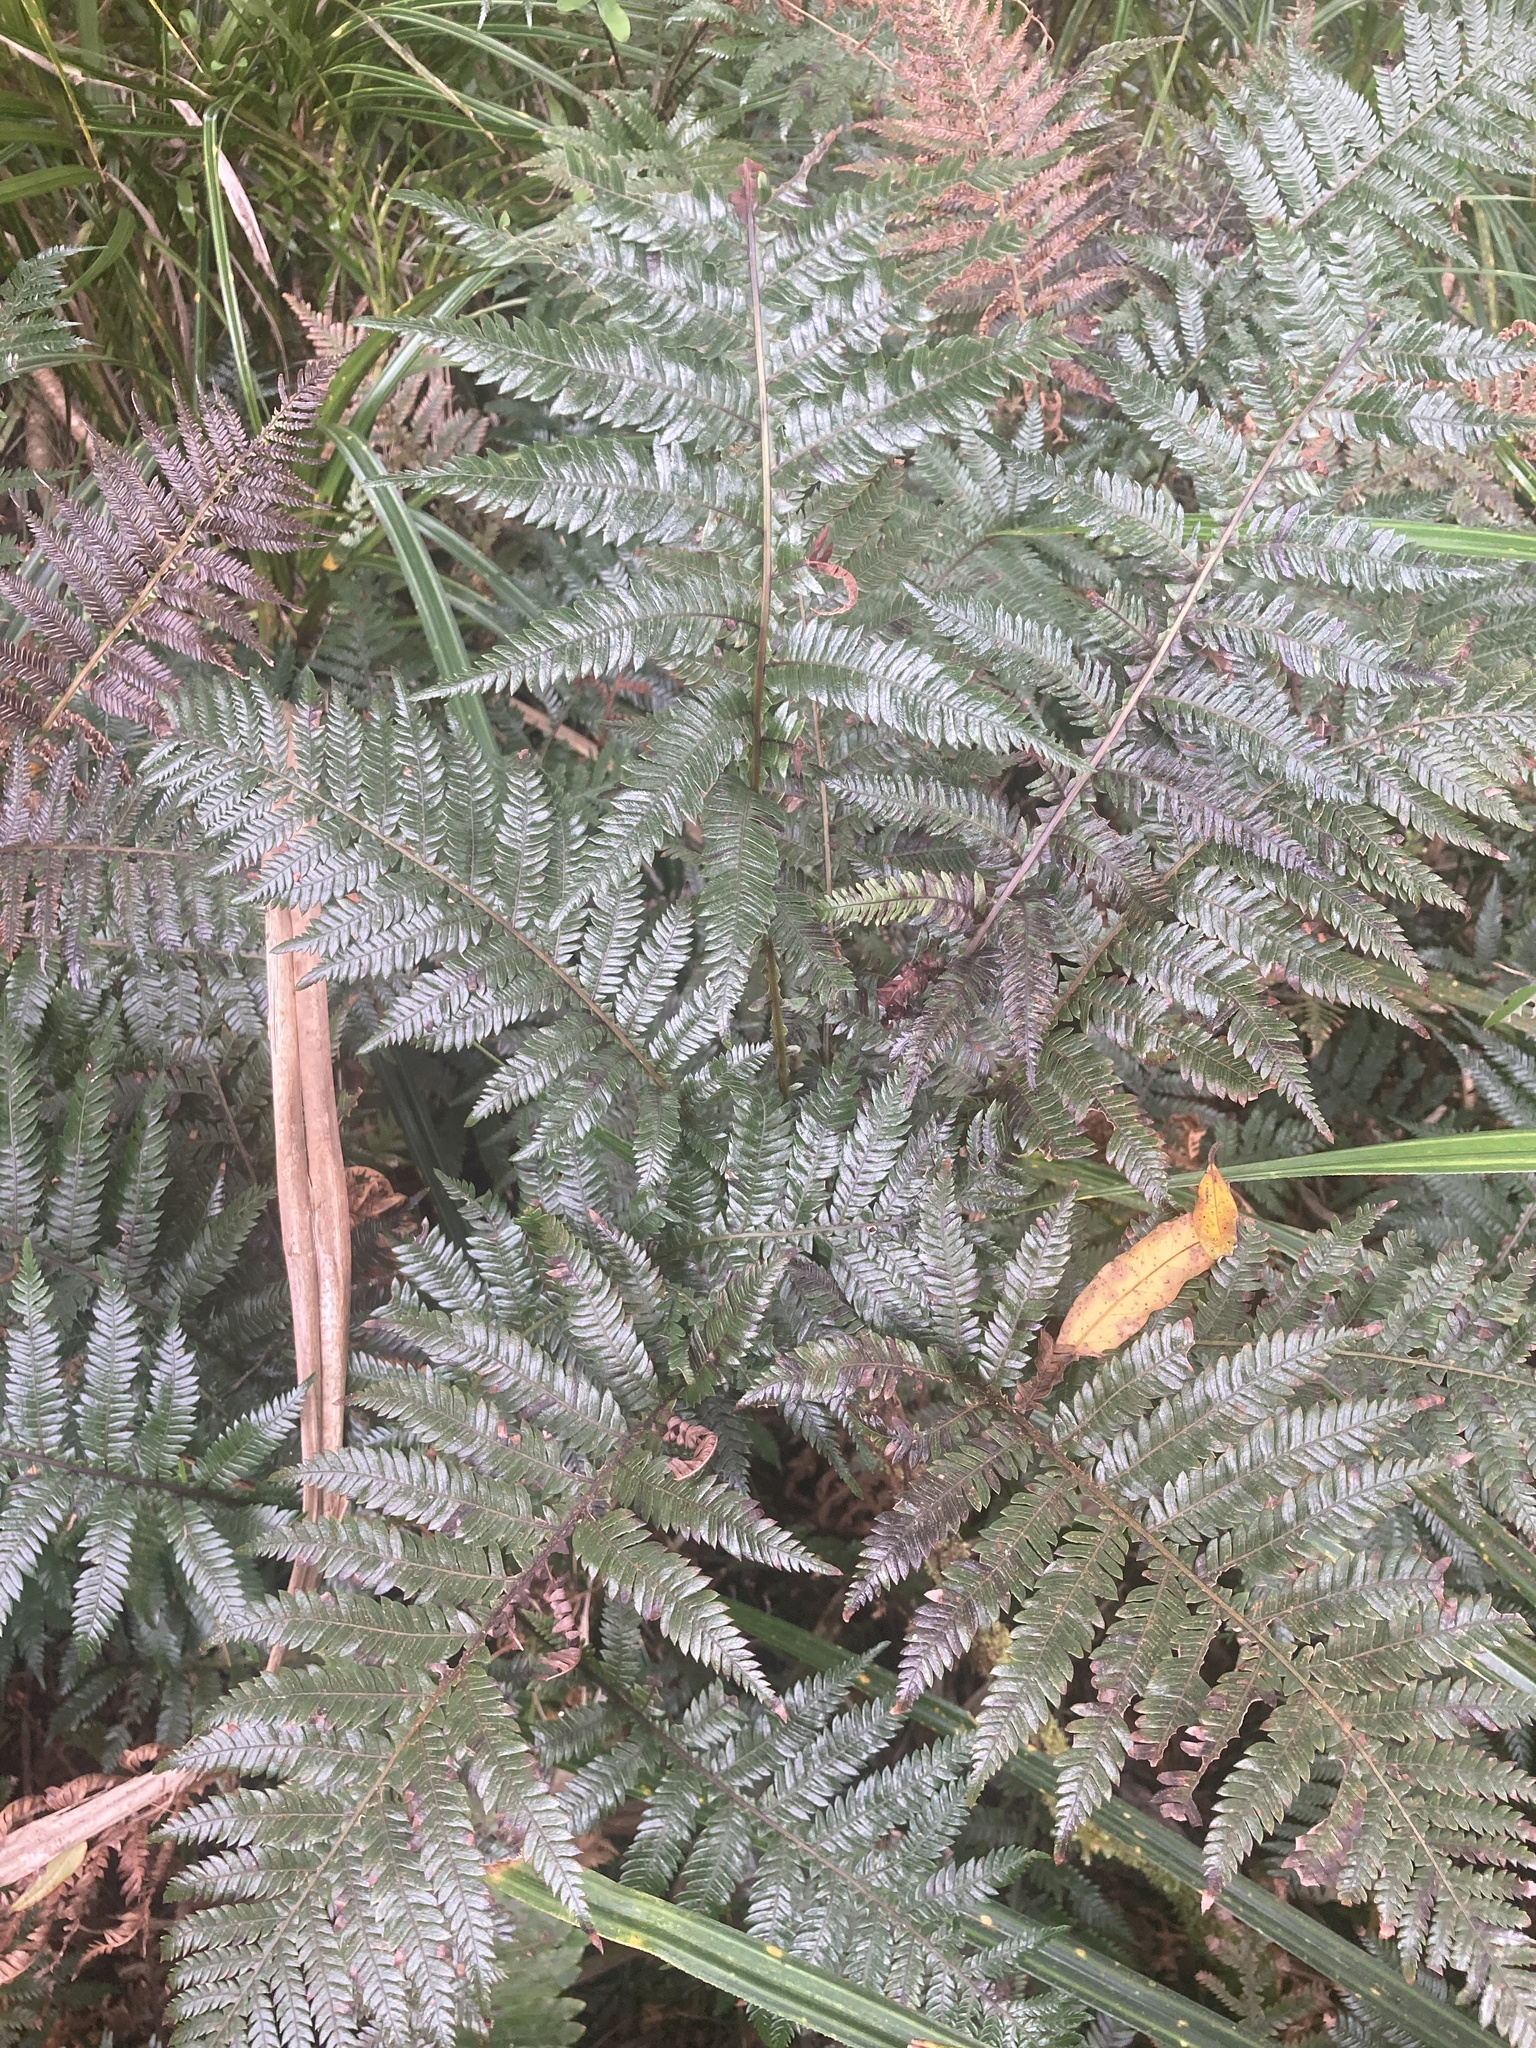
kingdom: Plantae
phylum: Tracheophyta
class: Polypodiopsida
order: Polypodiales
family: Blechnaceae
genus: Diploblechnum
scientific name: Diploblechnum fraseri
